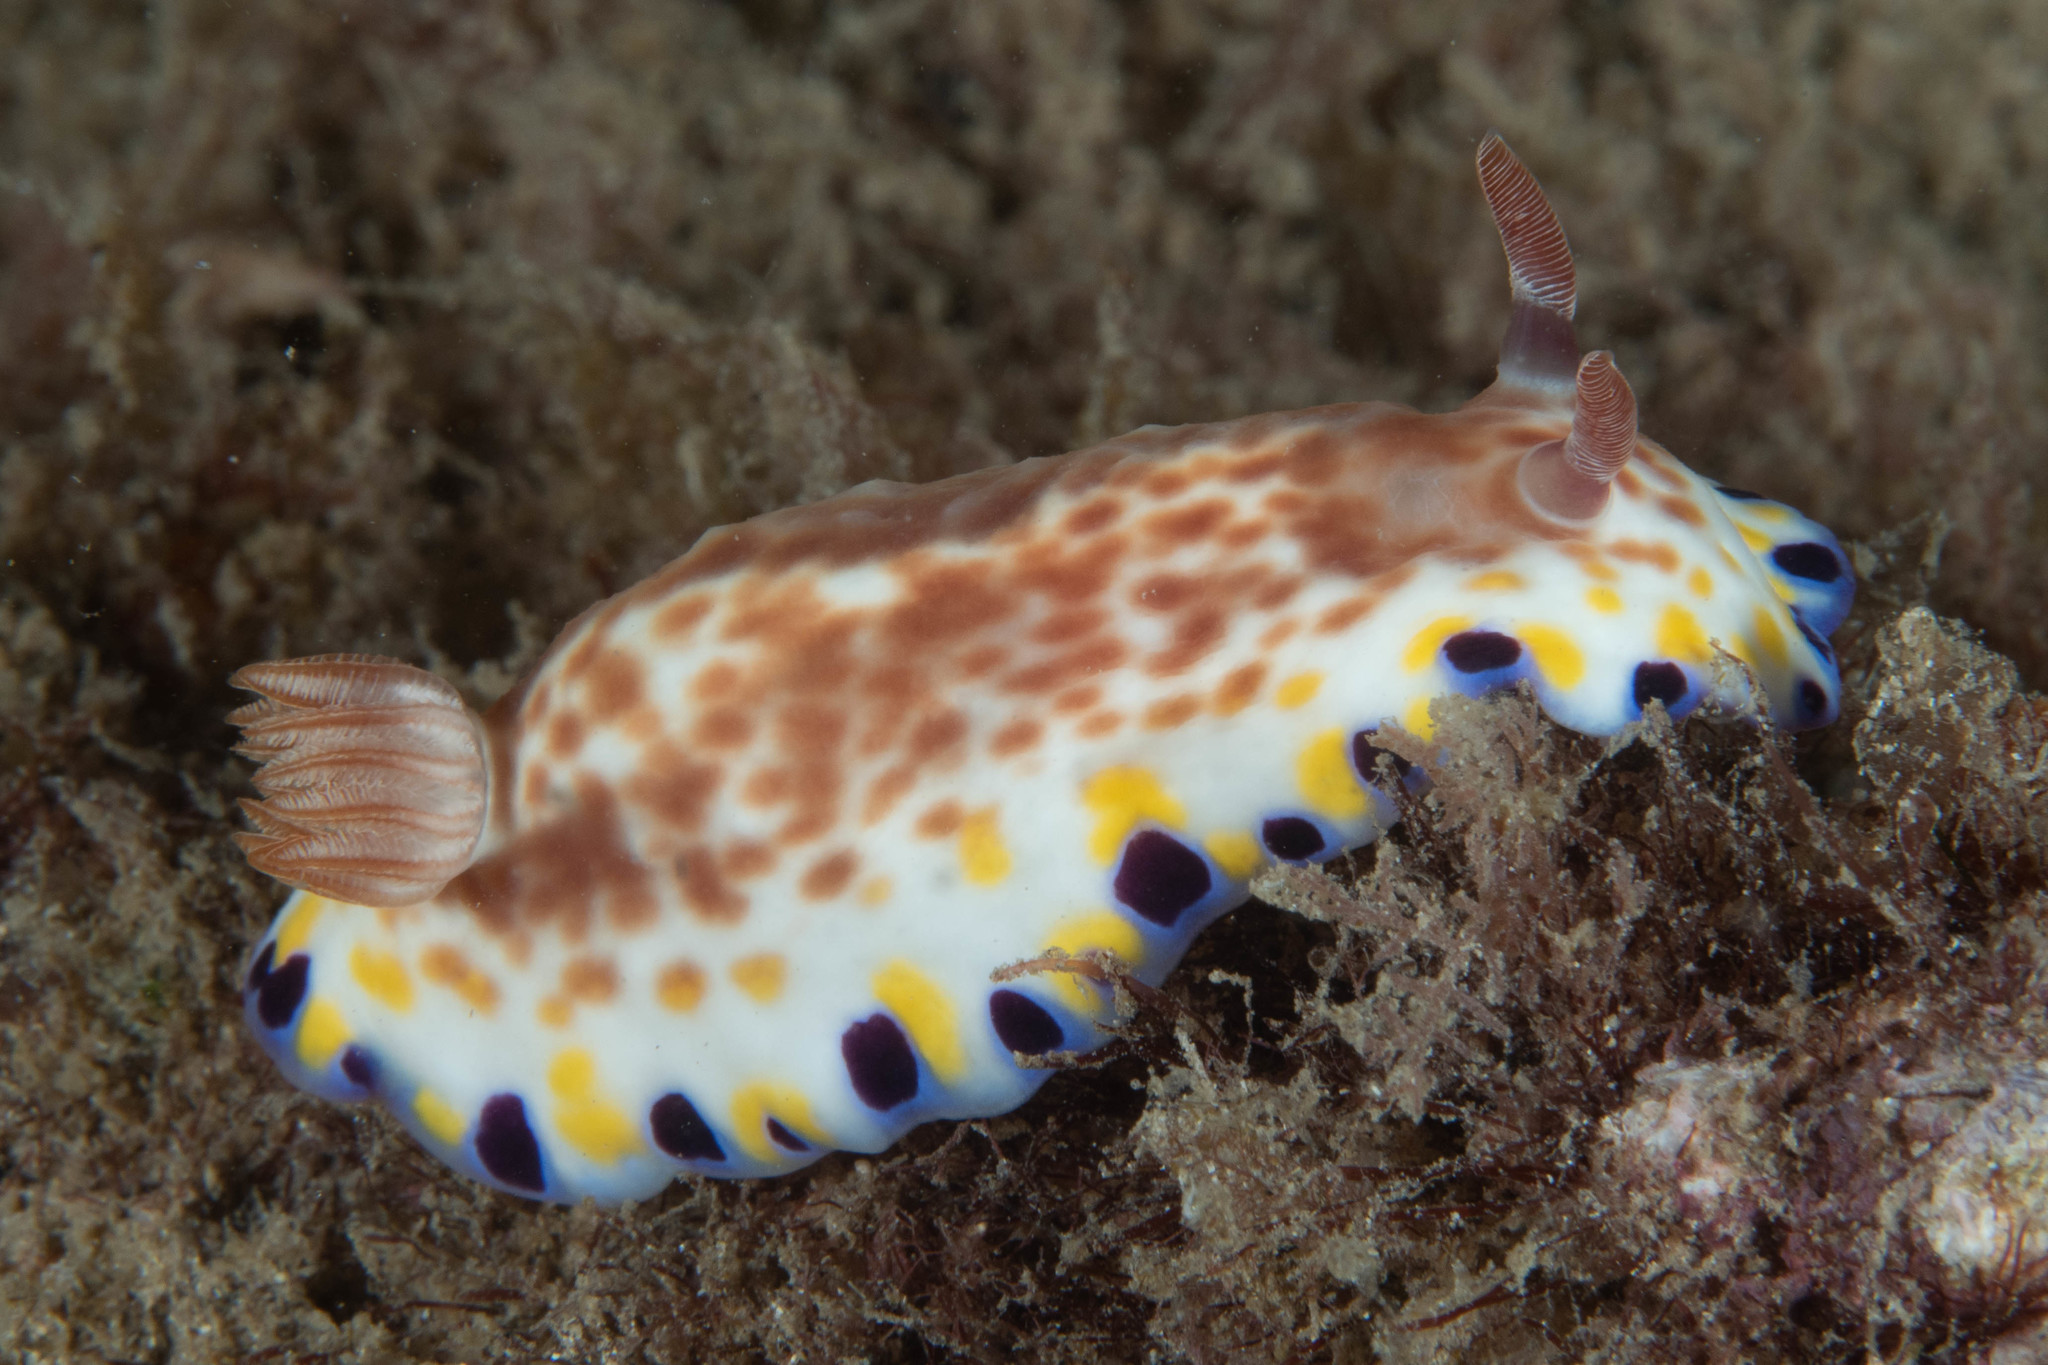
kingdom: Animalia
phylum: Mollusca
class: Gastropoda
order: Nudibranchia
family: Chromodorididae
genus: Goniobranchus
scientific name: Goniobranchus aureopurpureus
